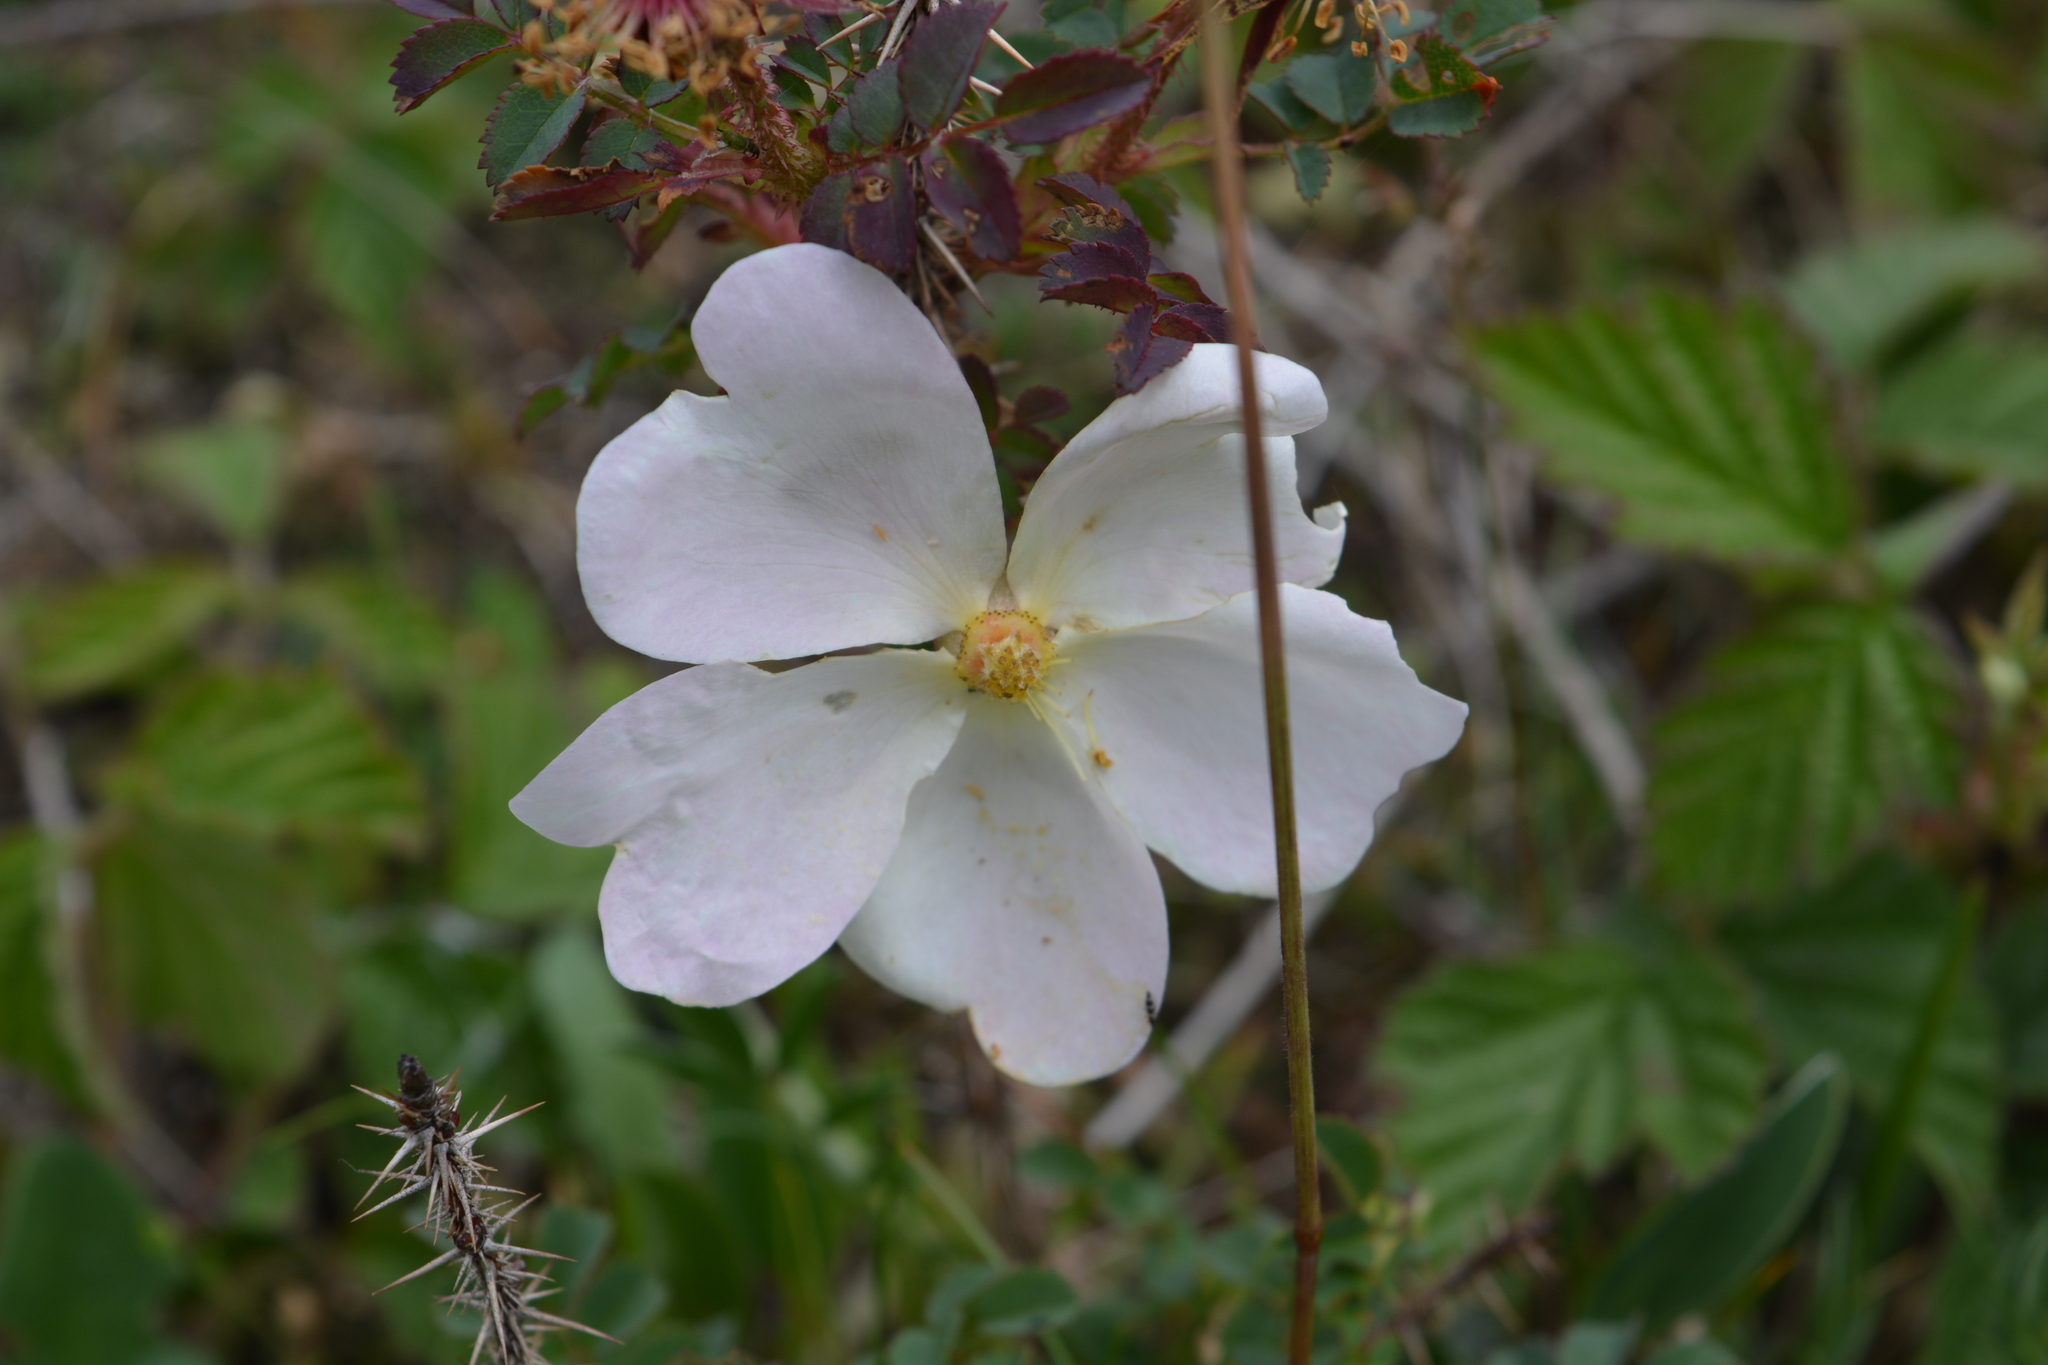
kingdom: Plantae
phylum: Tracheophyta
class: Magnoliopsida
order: Rosales
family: Rosaceae
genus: Rosa
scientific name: Rosa canina
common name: Dog rose
